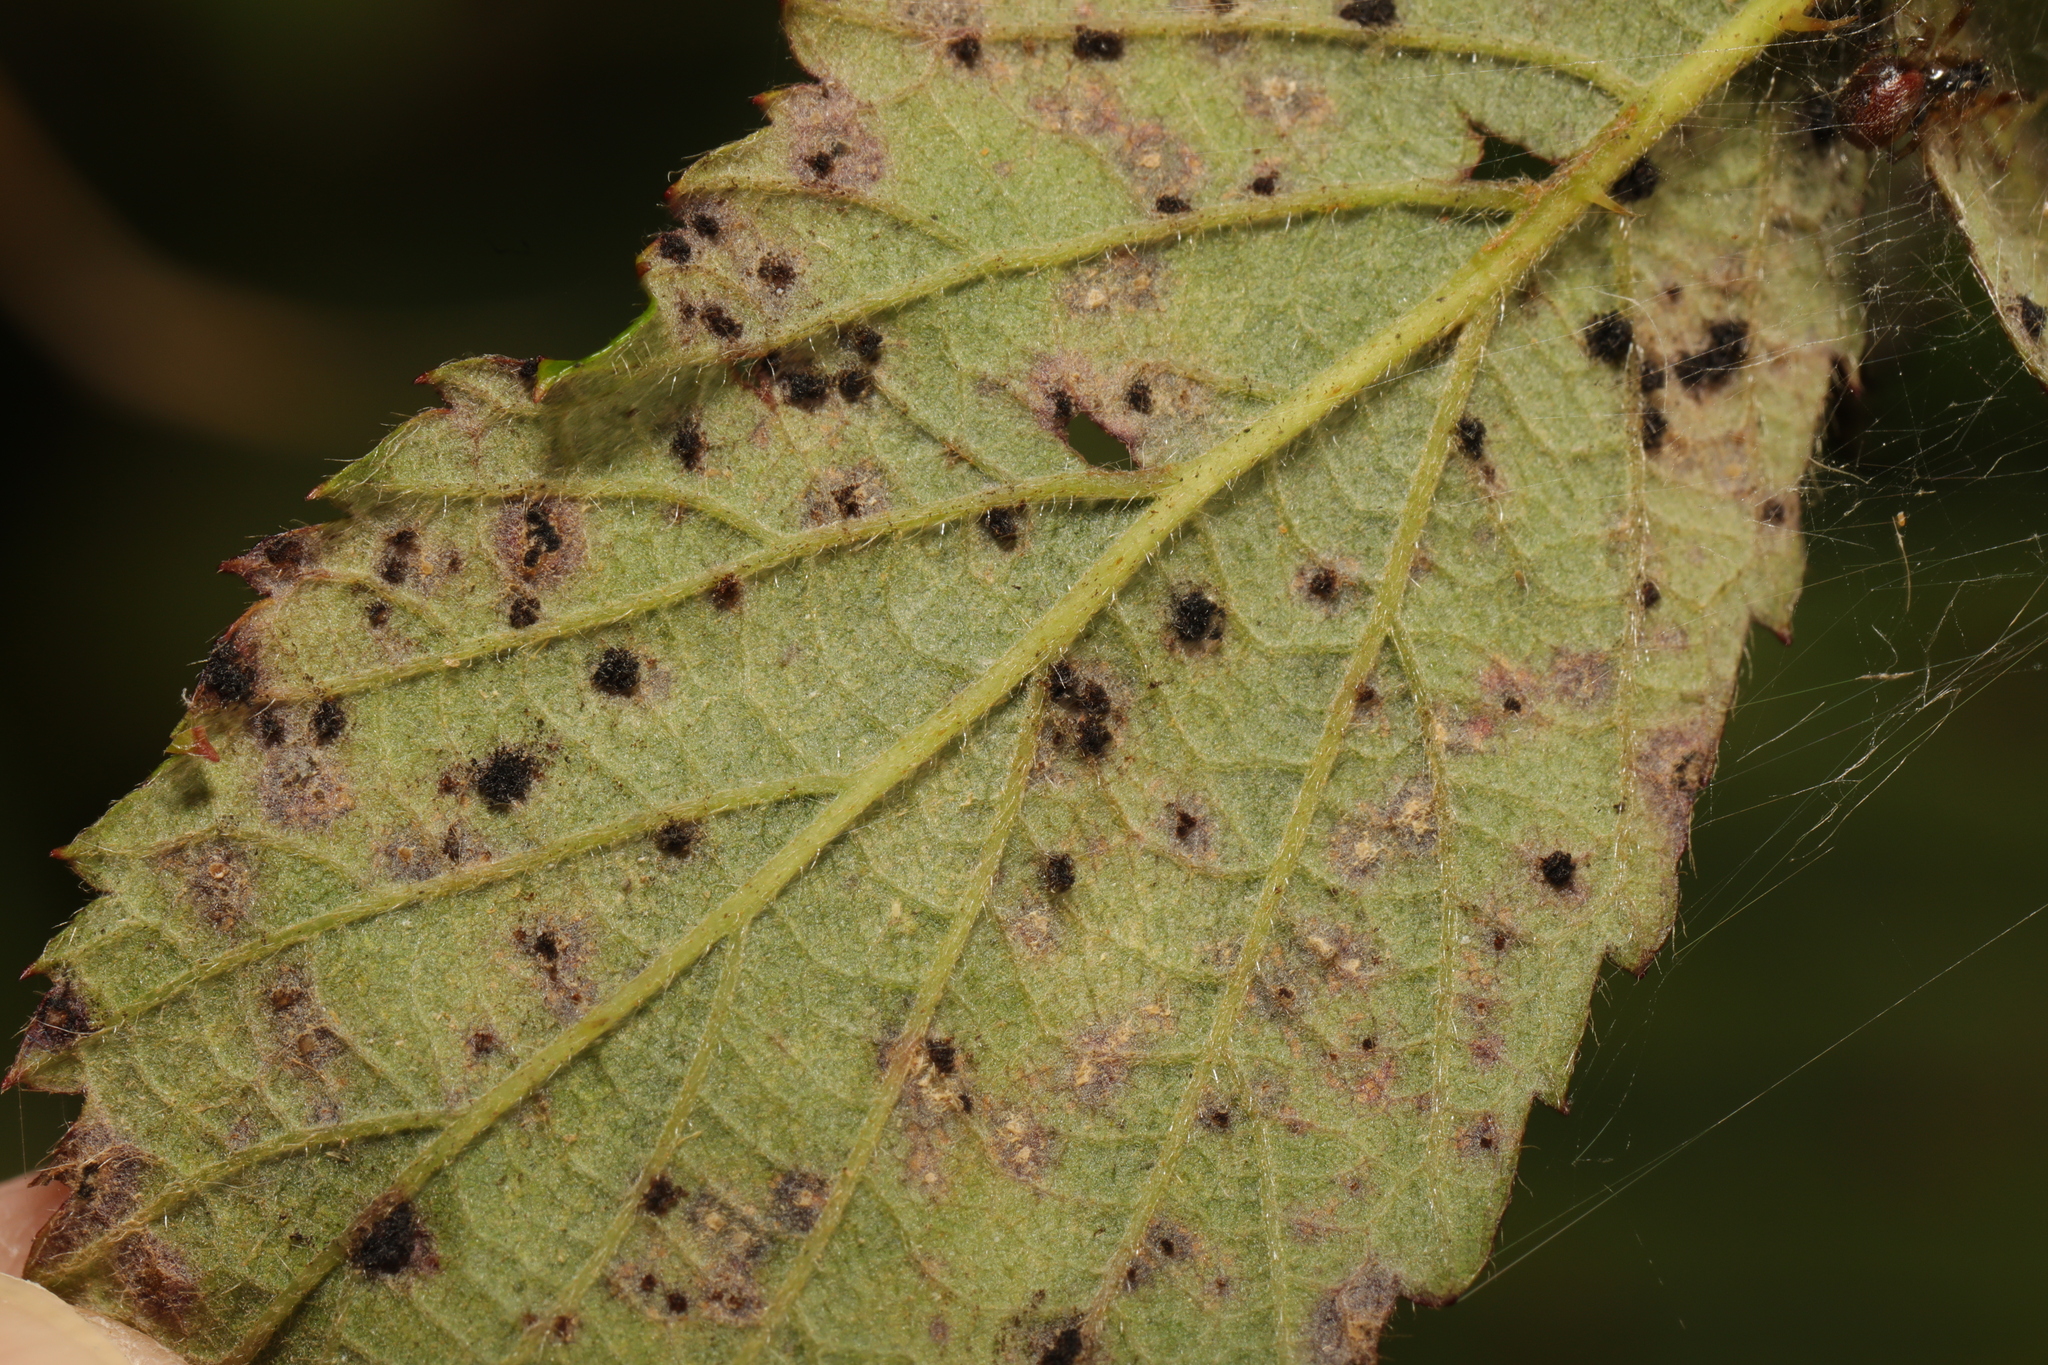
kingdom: Fungi
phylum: Basidiomycota
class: Pucciniomycetes
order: Pucciniales
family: Phragmidiaceae
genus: Phragmidium
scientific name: Phragmidium violaceum
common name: Violet bramble rust
